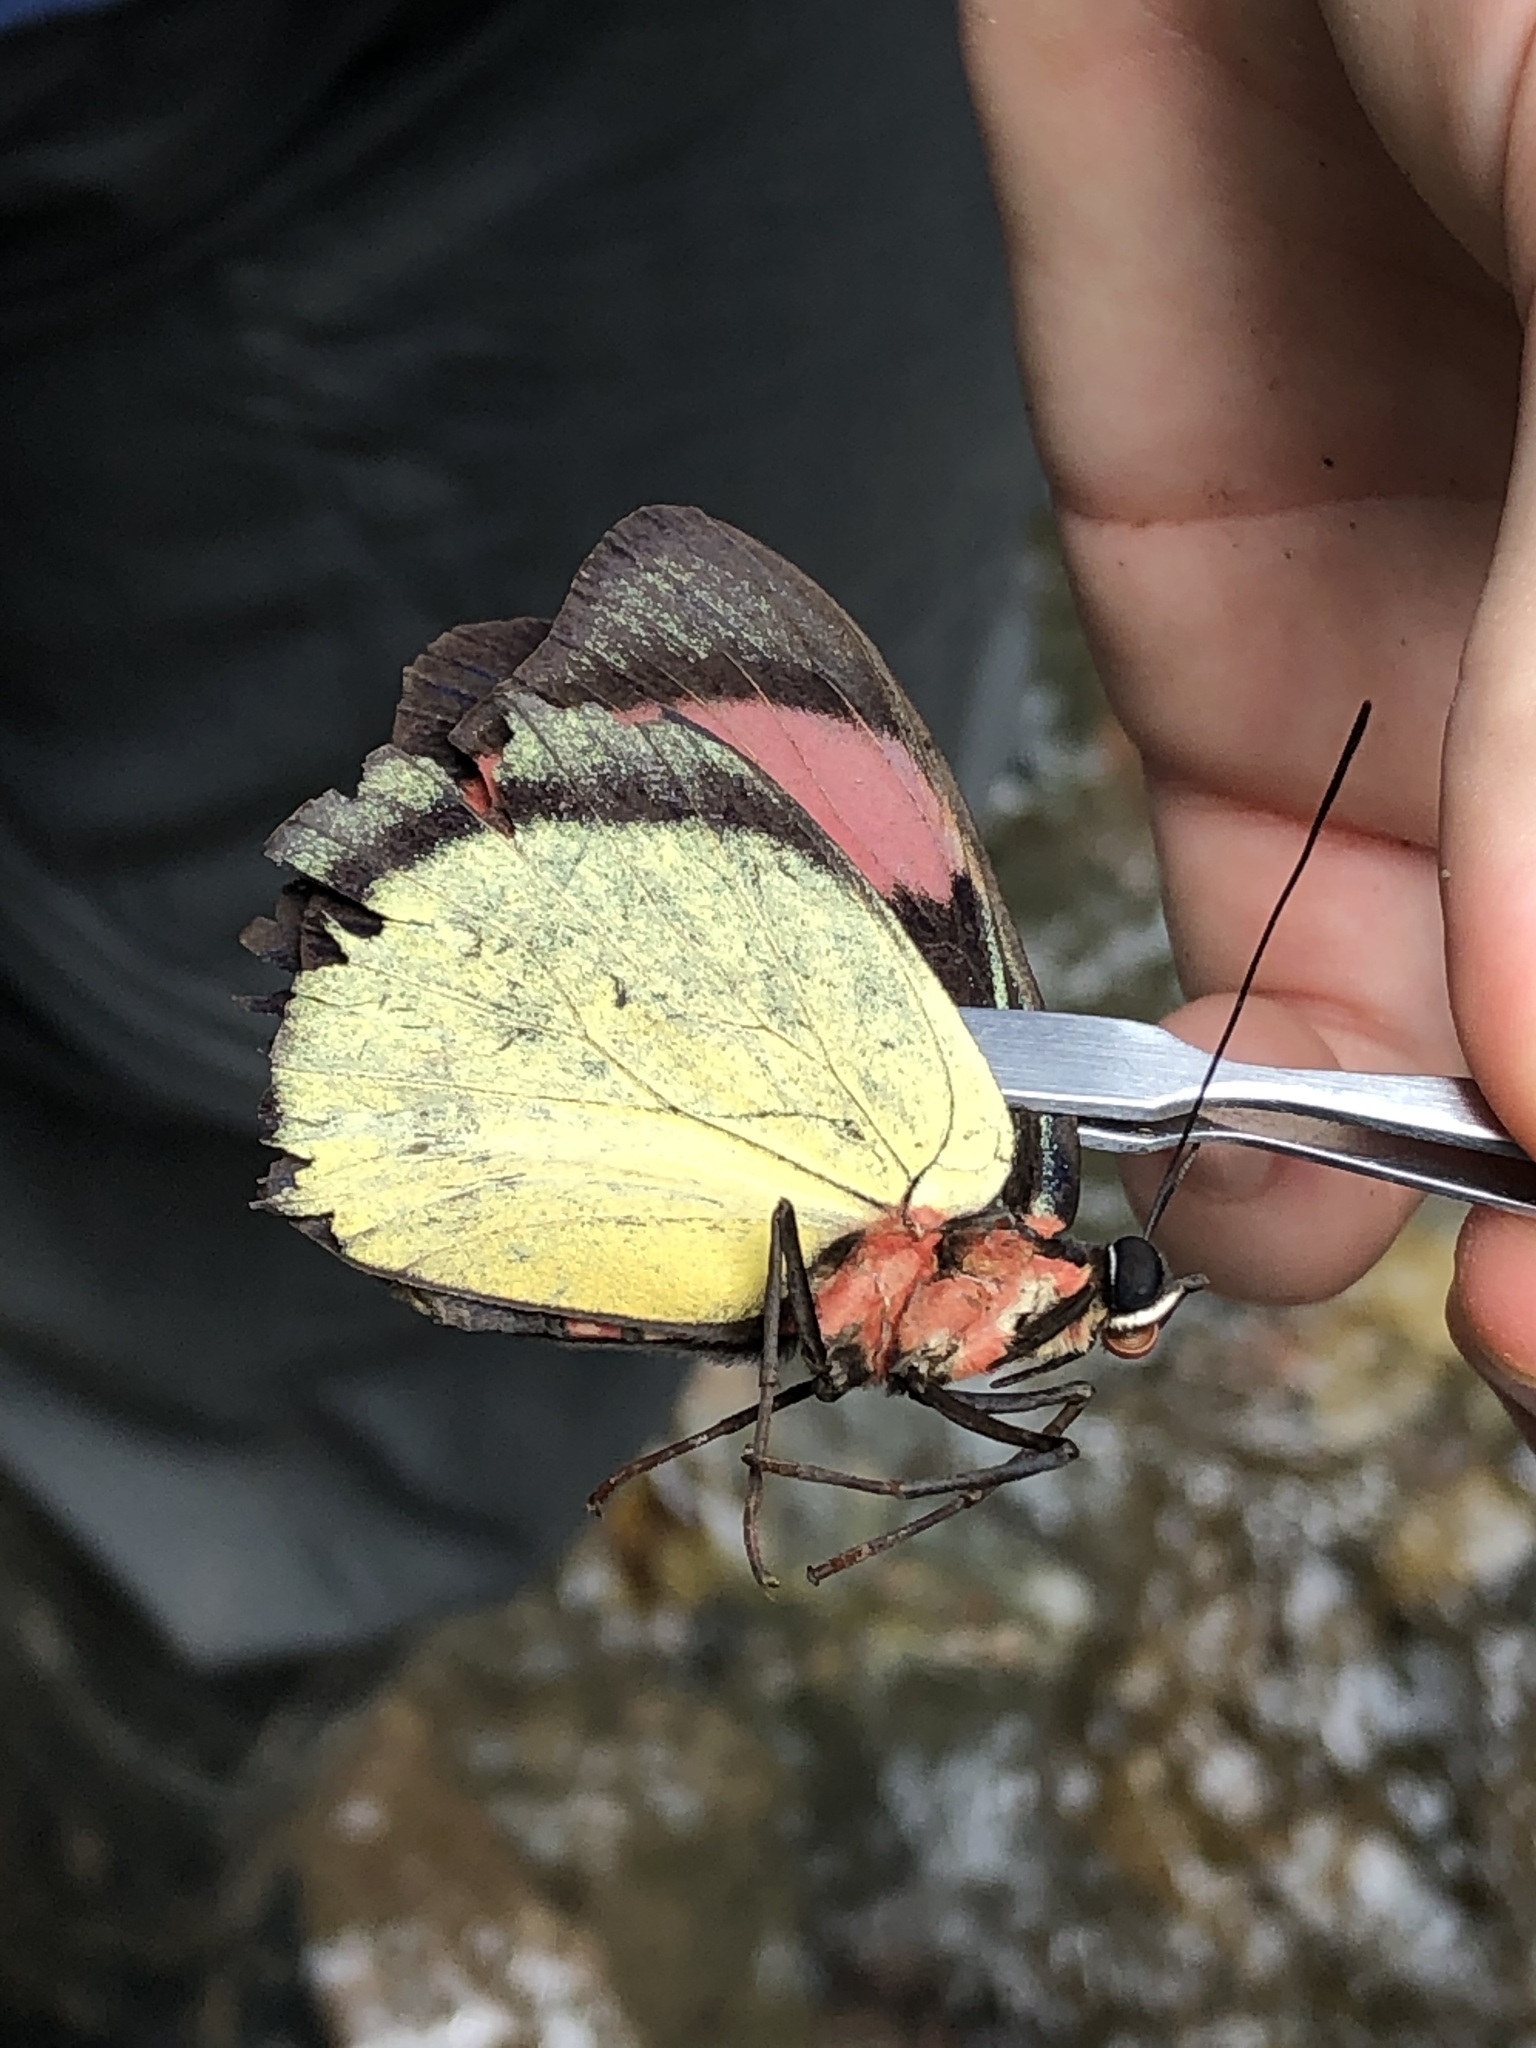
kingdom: Animalia
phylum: Arthropoda
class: Insecta
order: Lepidoptera
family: Nymphalidae
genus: Batesia
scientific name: Batesia hypochlora
